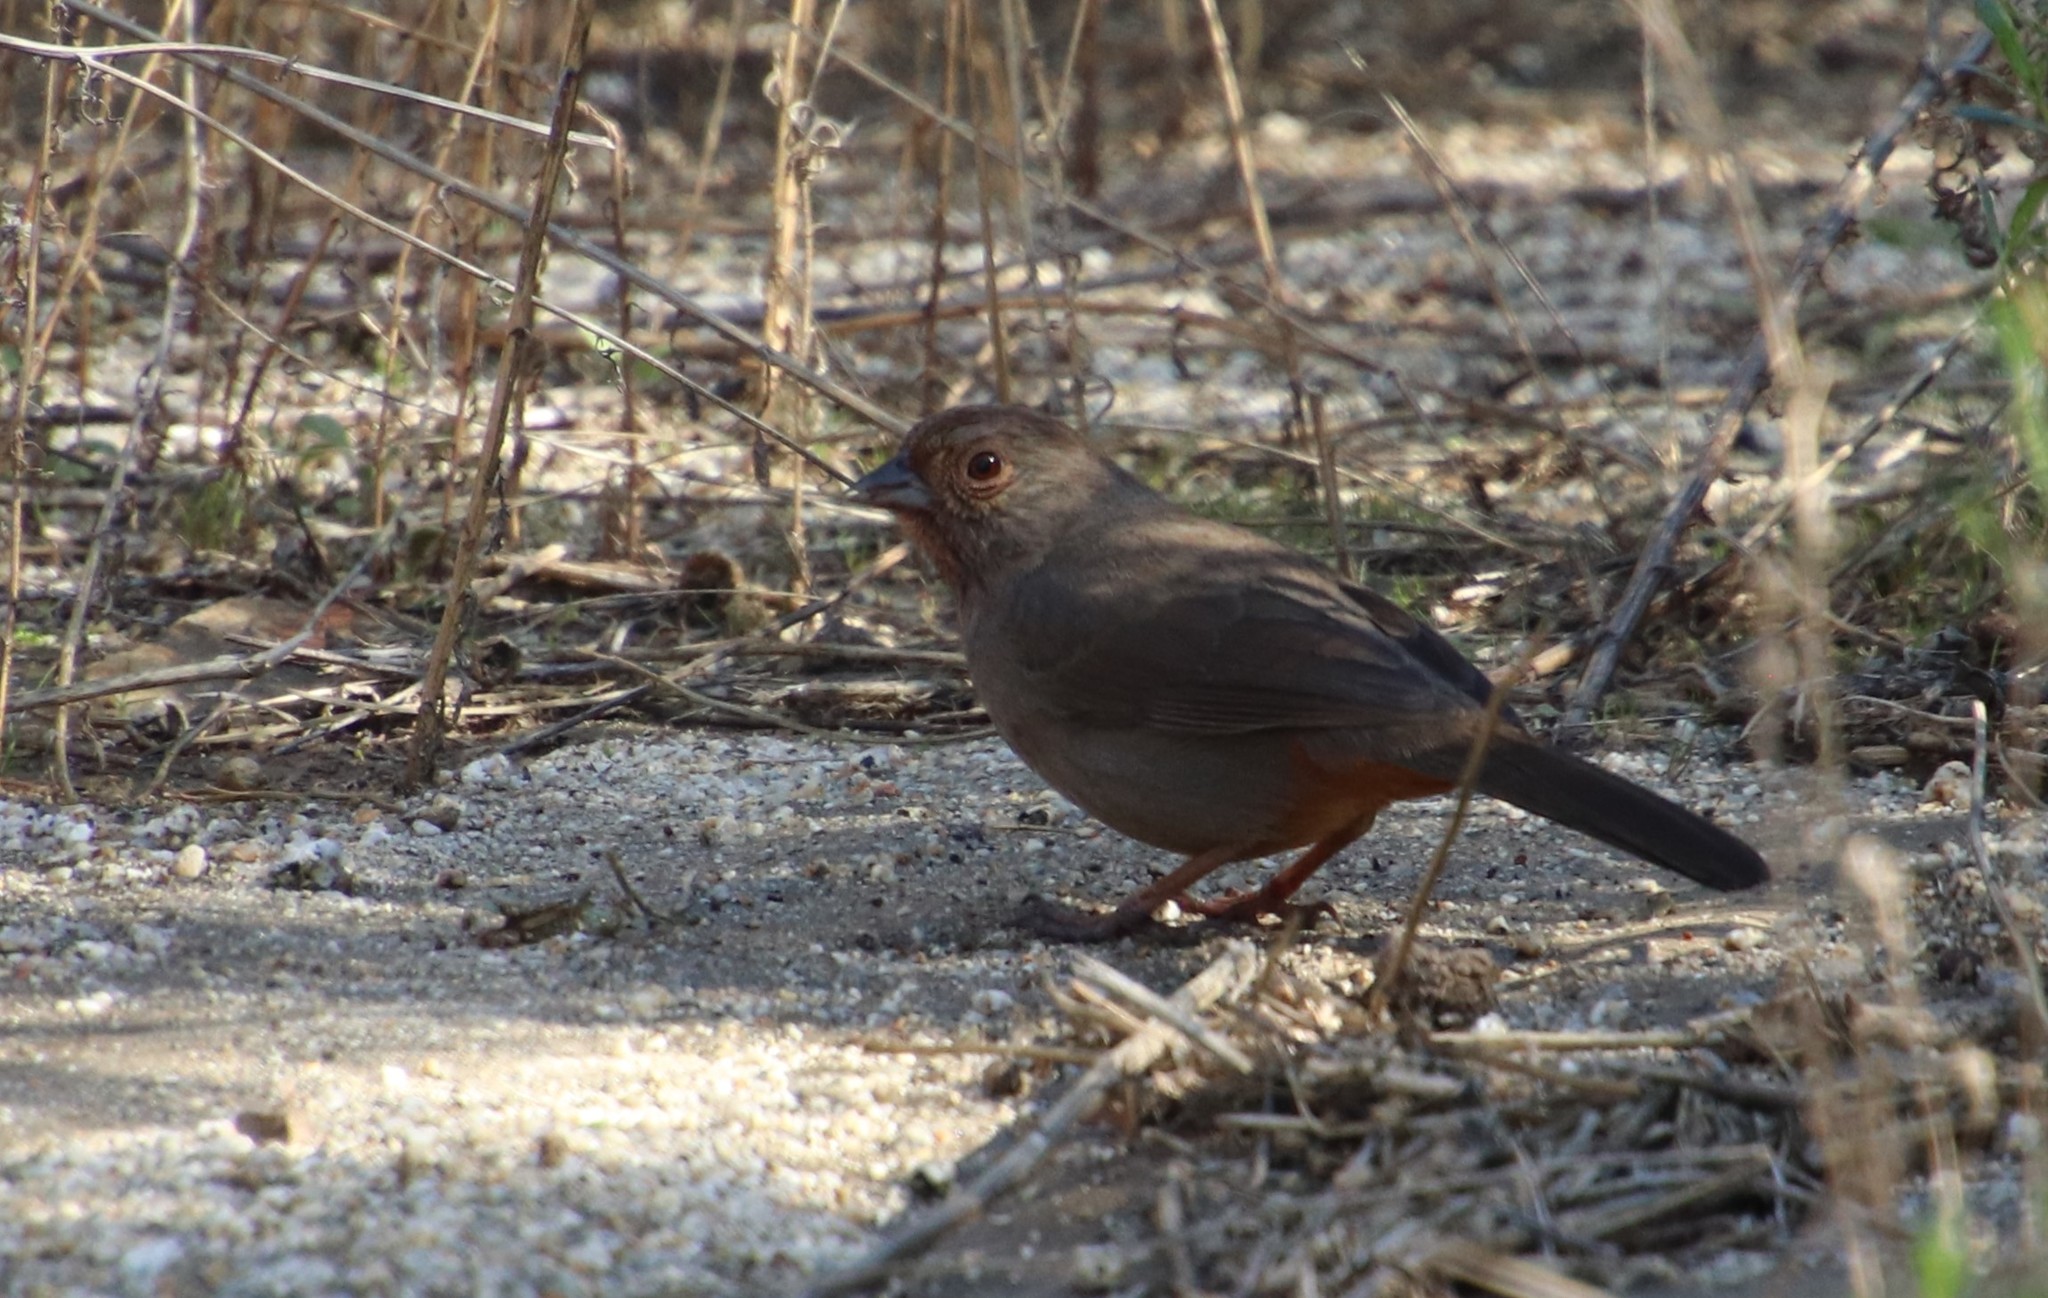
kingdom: Animalia
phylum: Chordata
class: Aves
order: Passeriformes
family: Passerellidae
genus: Melozone
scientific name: Melozone crissalis
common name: California towhee
